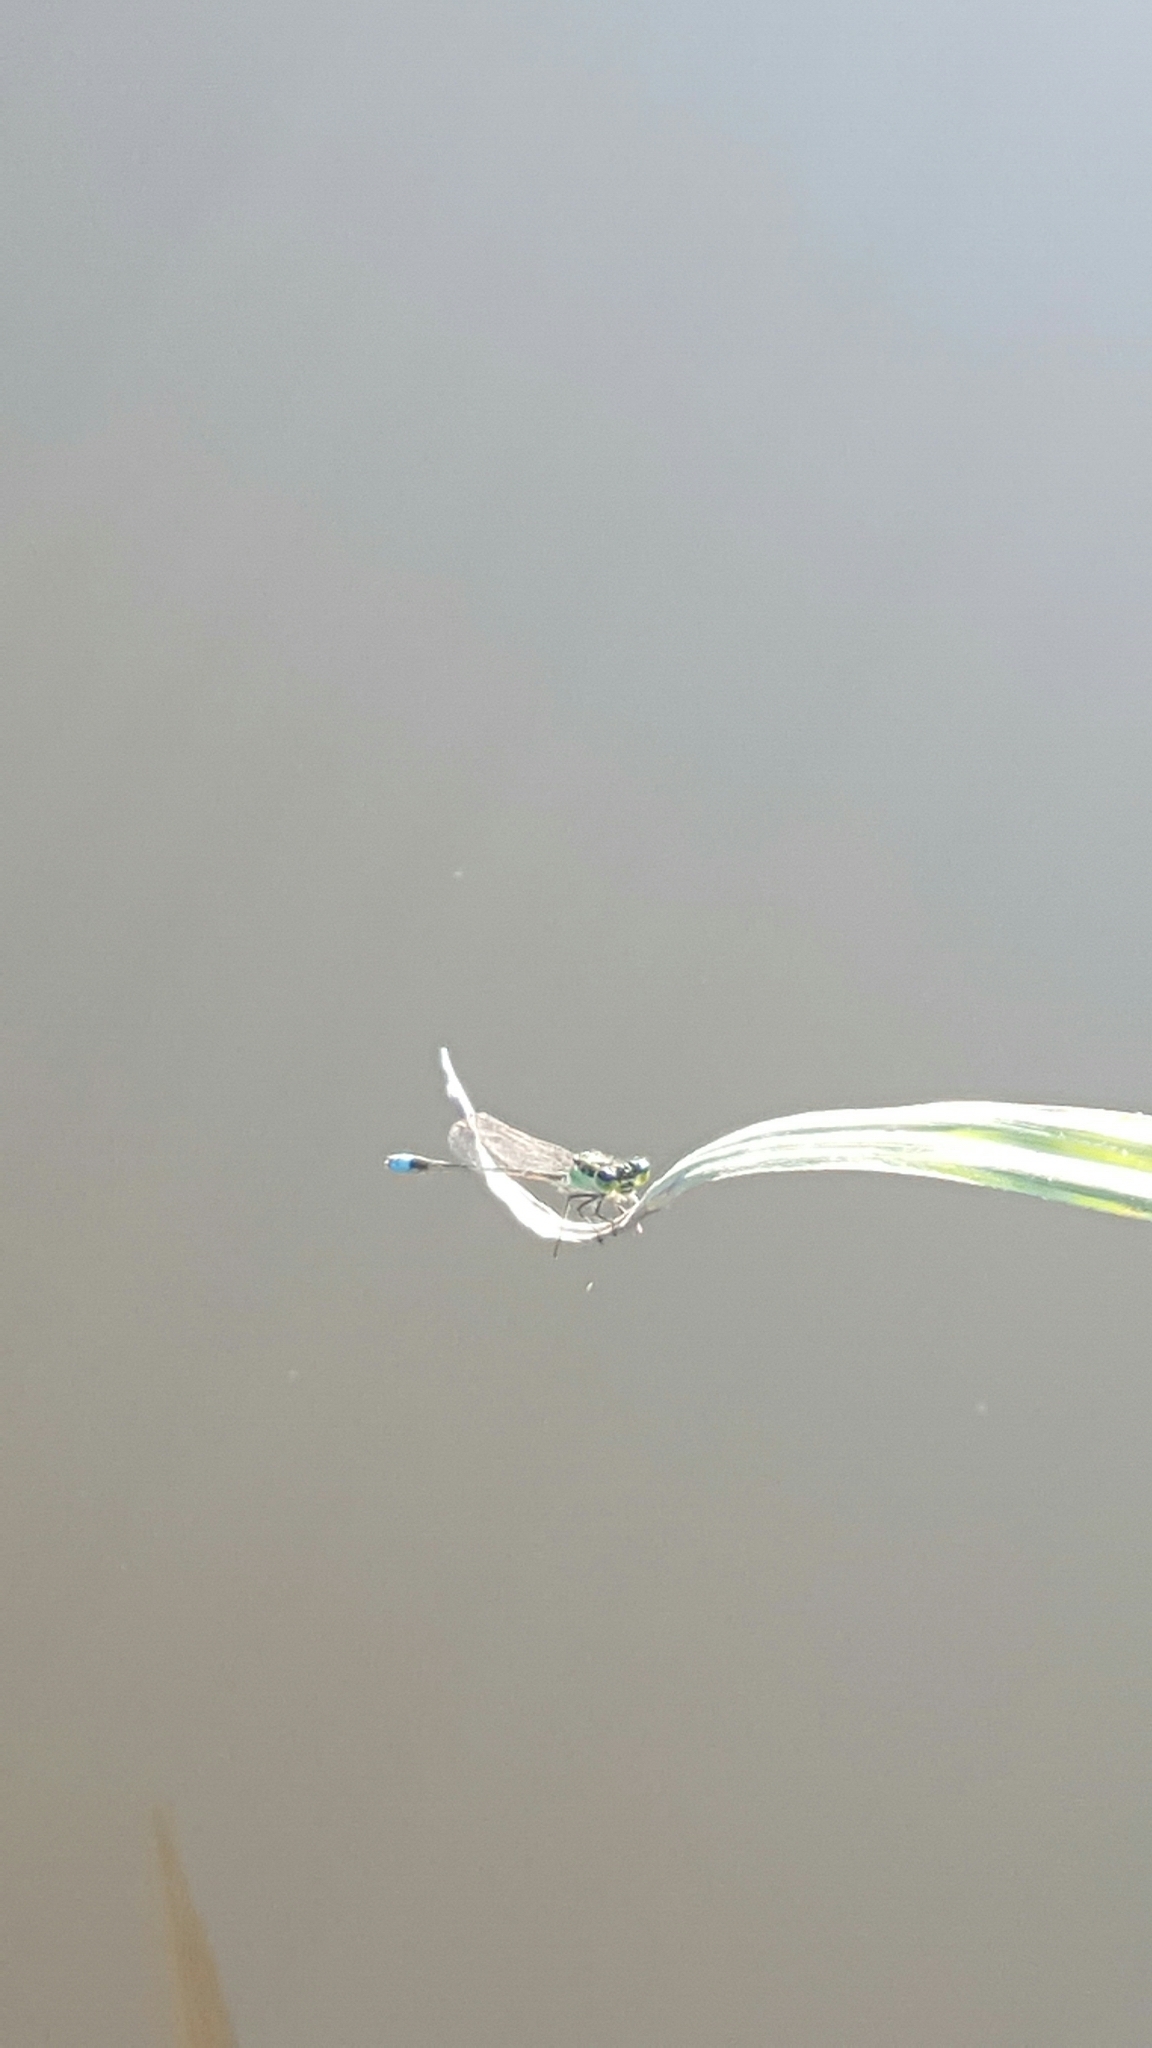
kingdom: Animalia
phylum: Arthropoda
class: Insecta
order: Odonata
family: Coenagrionidae
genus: Ischnura
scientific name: Ischnura ramburii
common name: Rambur's forktail
